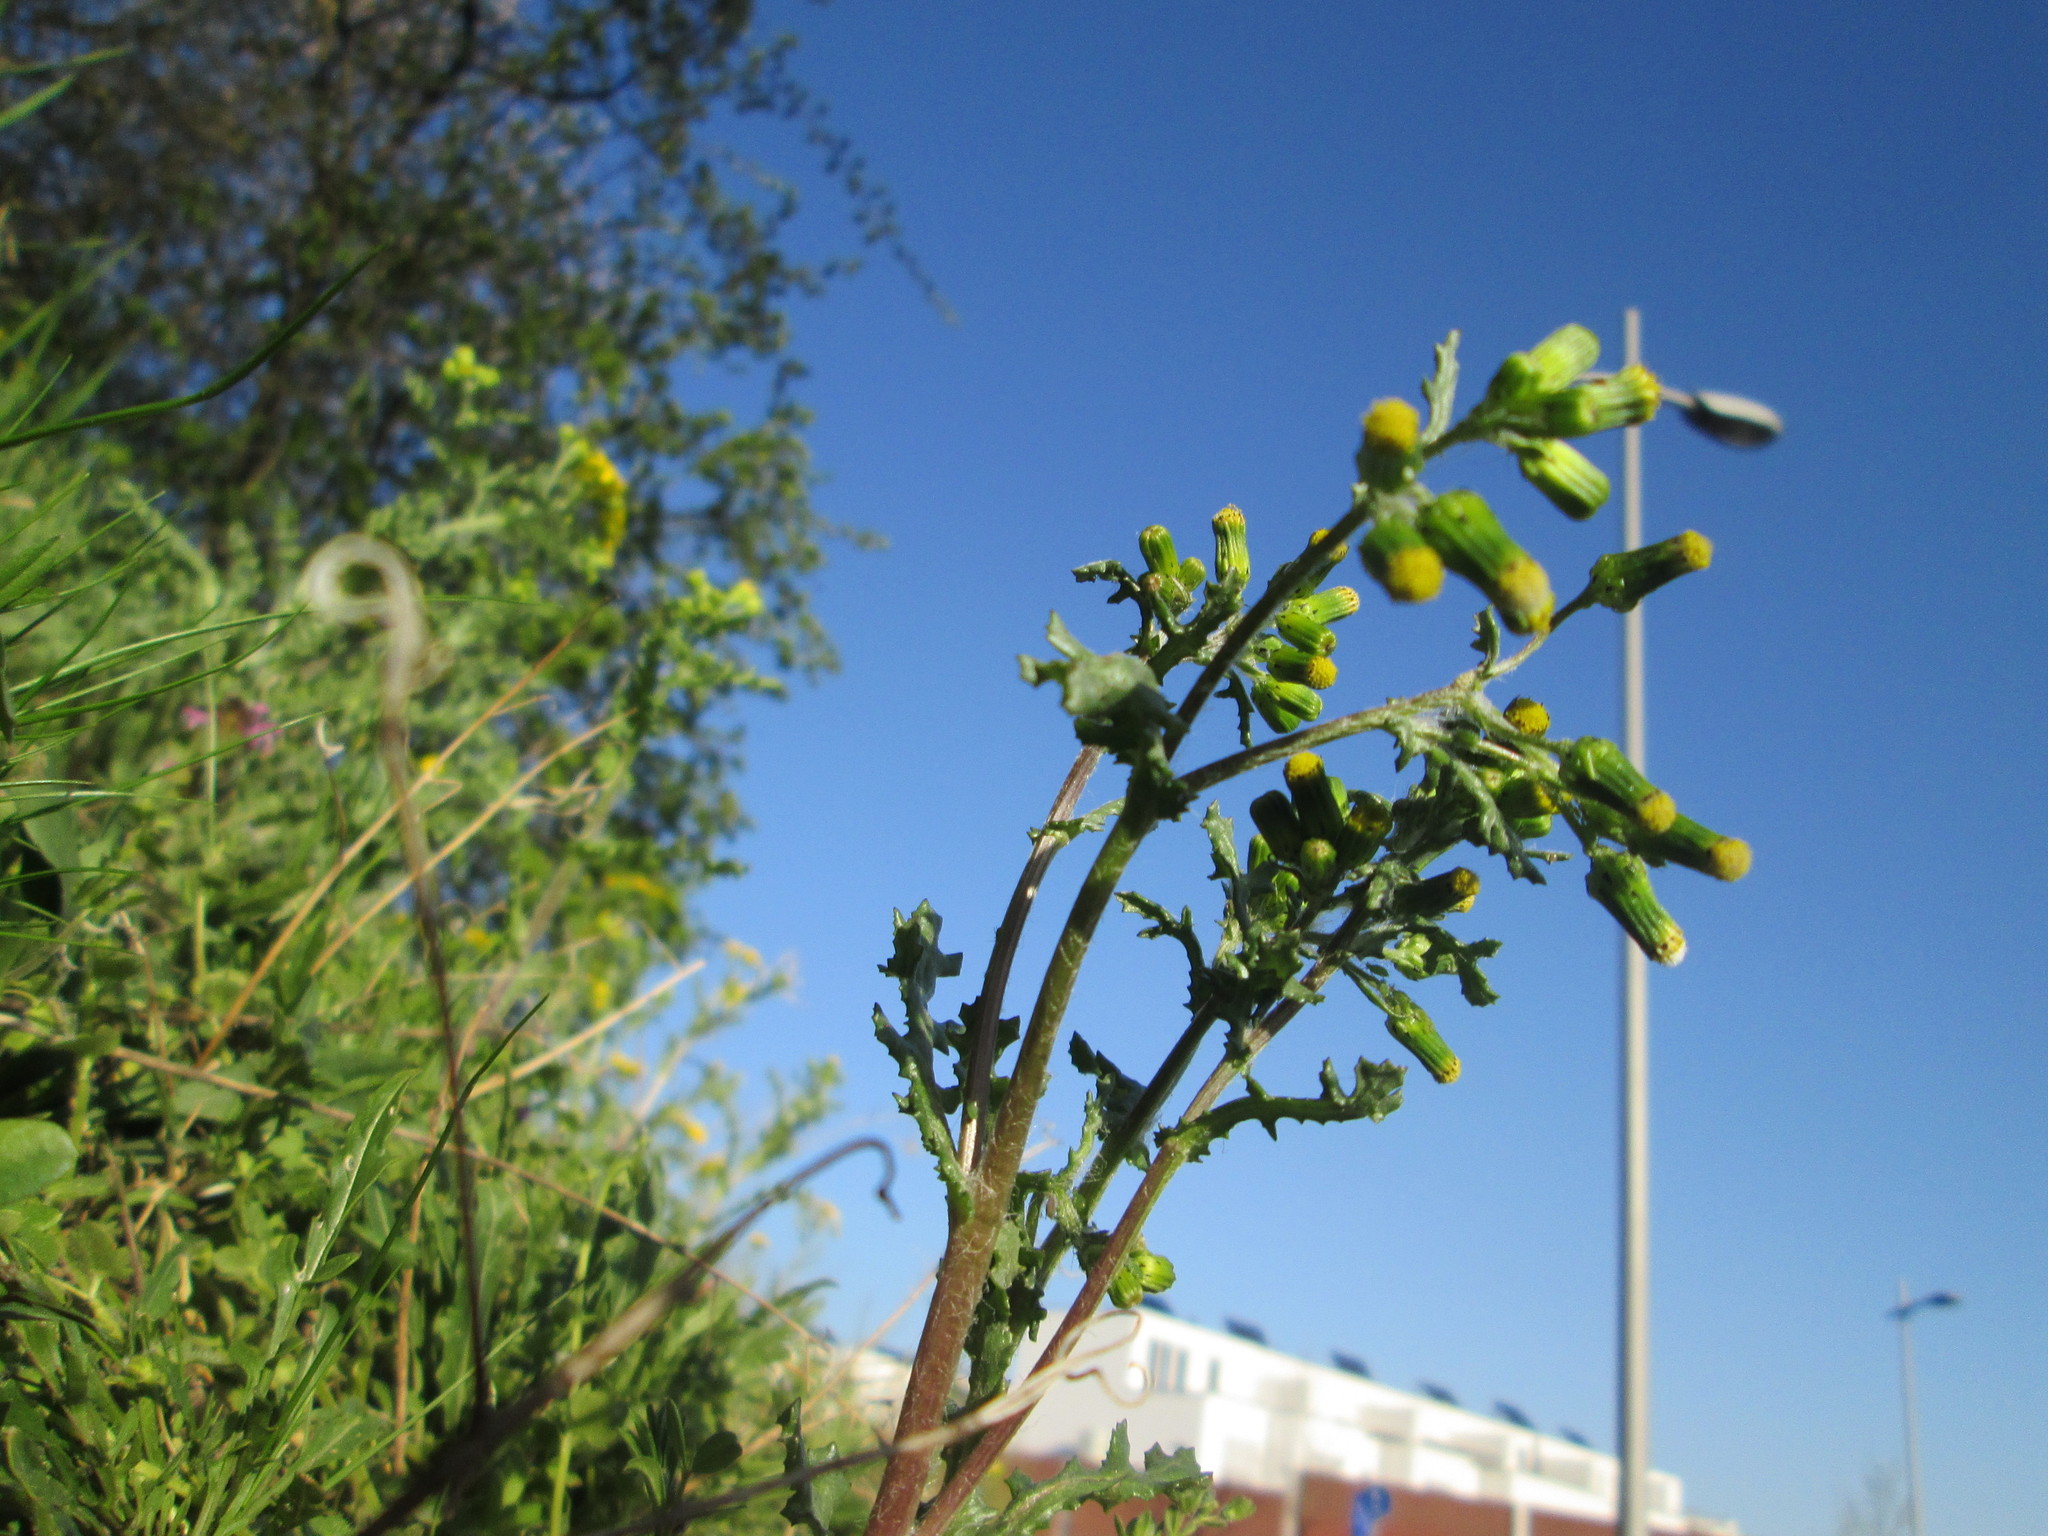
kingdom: Plantae
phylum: Tracheophyta
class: Magnoliopsida
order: Asterales
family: Asteraceae
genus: Senecio
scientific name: Senecio vulgaris
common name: Old-man-in-the-spring
